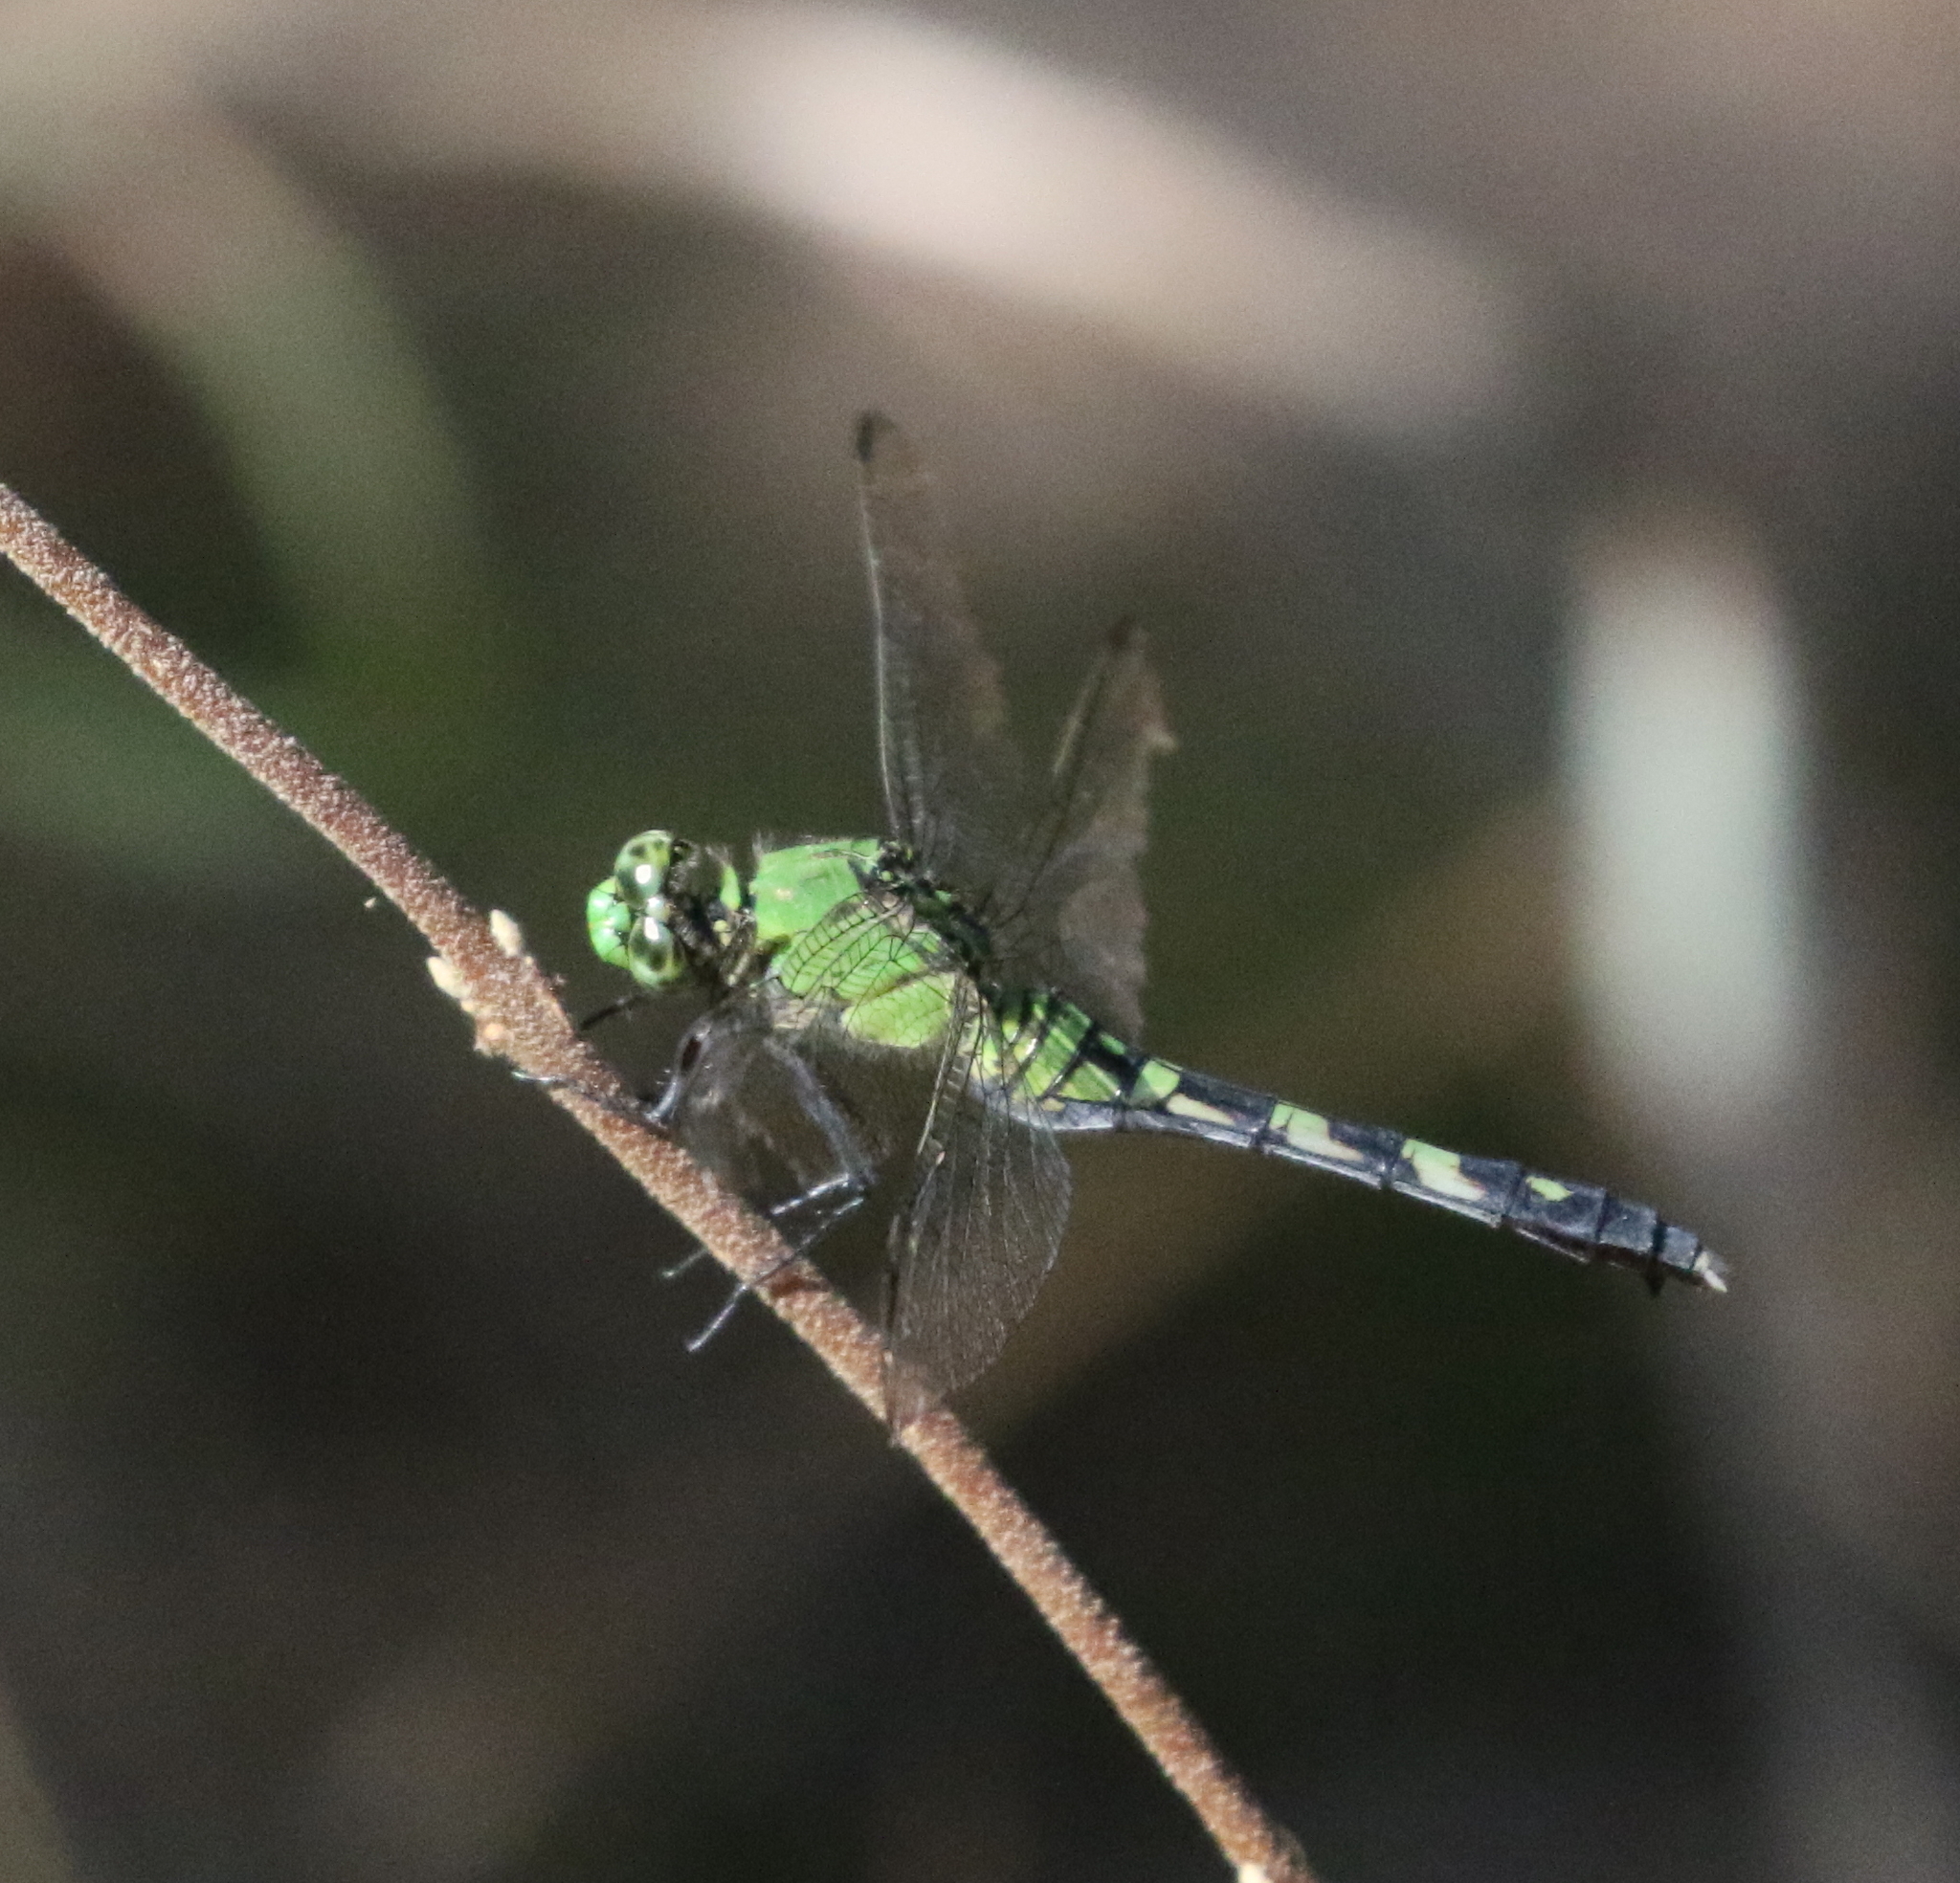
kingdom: Animalia
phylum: Arthropoda
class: Insecta
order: Odonata
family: Libellulidae
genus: Erythemis
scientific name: Erythemis simplicicollis
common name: Eastern pondhawk
